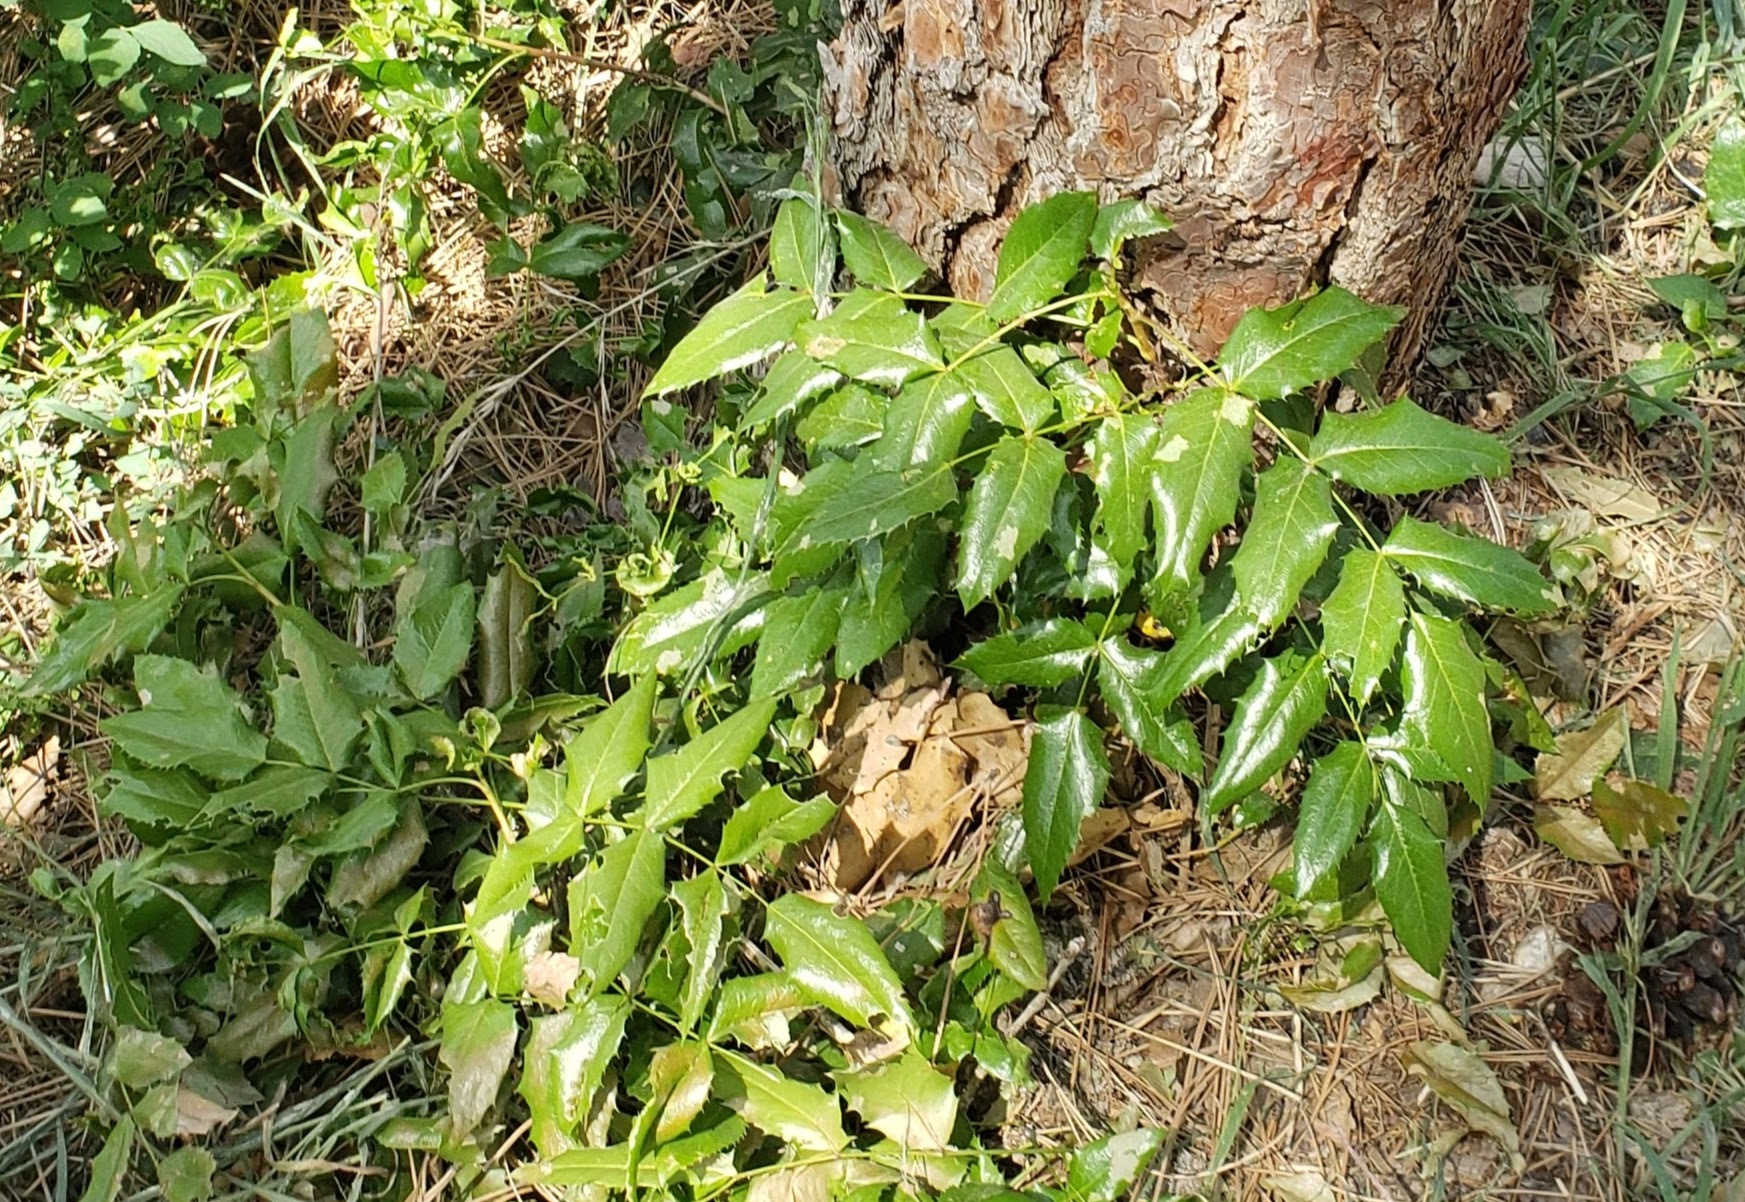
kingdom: Plantae
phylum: Tracheophyta
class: Magnoliopsida
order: Ranunculales
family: Berberidaceae
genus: Mahonia
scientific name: Mahonia aquifolium
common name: Oregon-grape
